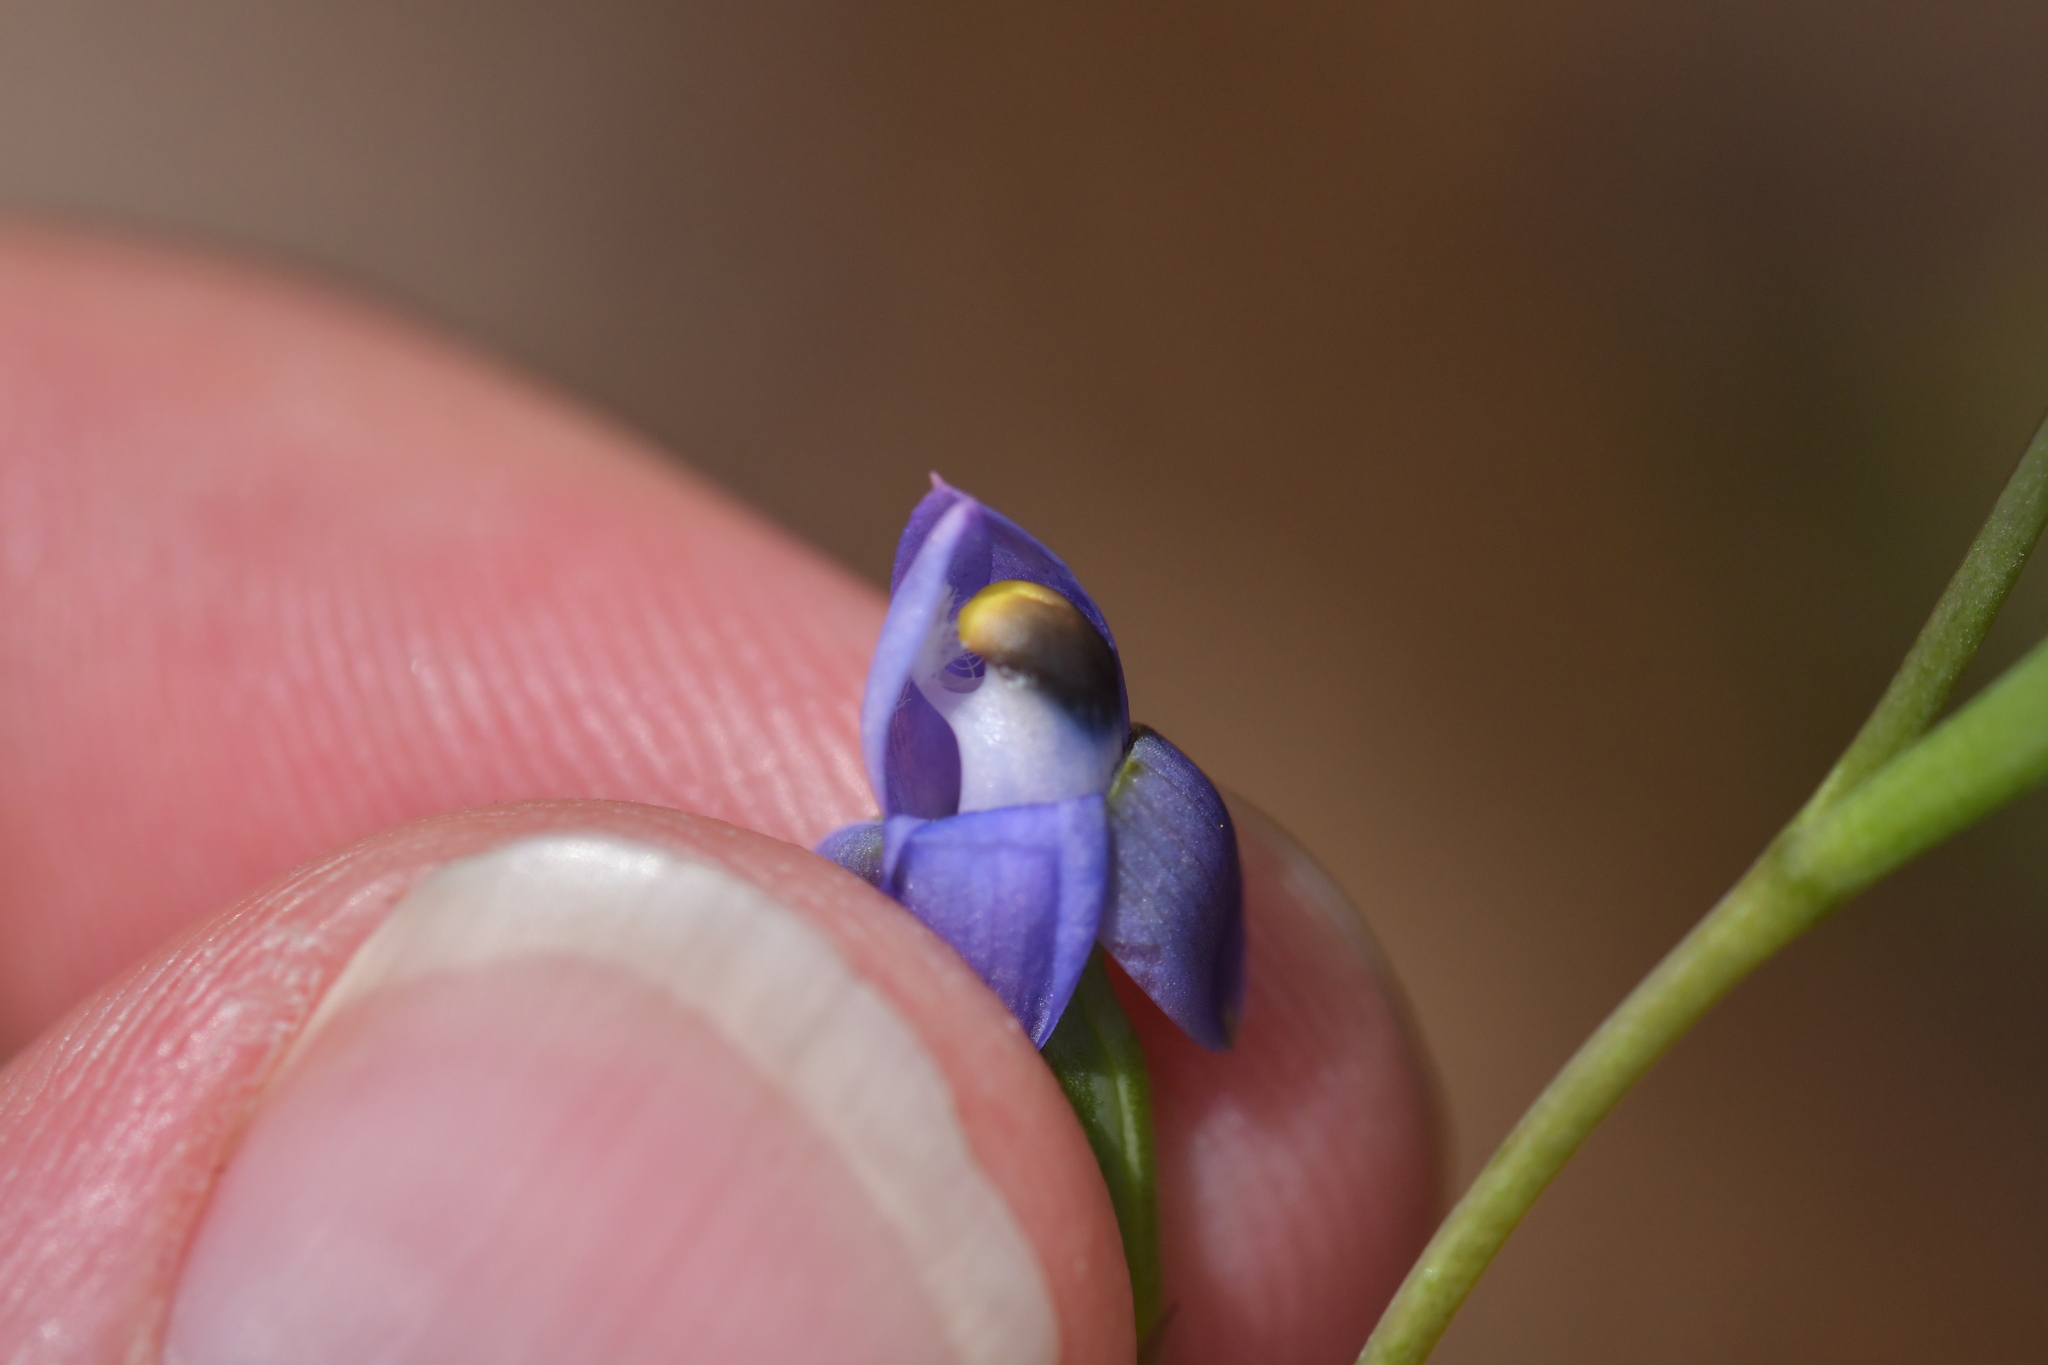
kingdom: Plantae
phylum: Tracheophyta
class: Liliopsida
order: Asparagales
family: Orchidaceae
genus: Thelymitra
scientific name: Thelymitra pauciflora
